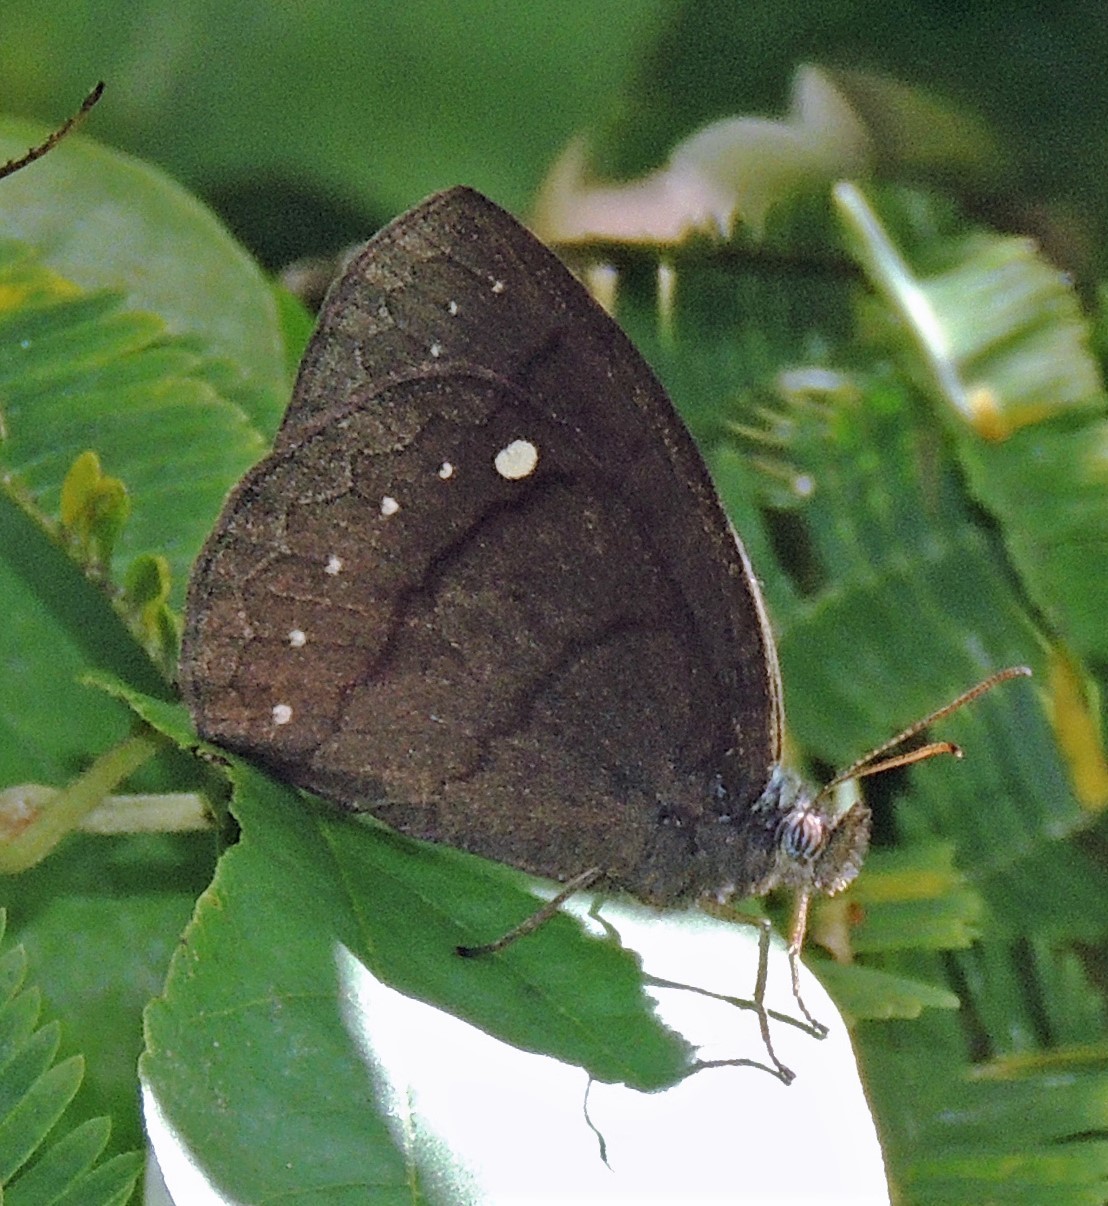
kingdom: Animalia
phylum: Arthropoda
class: Insecta
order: Lepidoptera
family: Nymphalidae
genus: Forsterinaria
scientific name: Forsterinaria quantius
